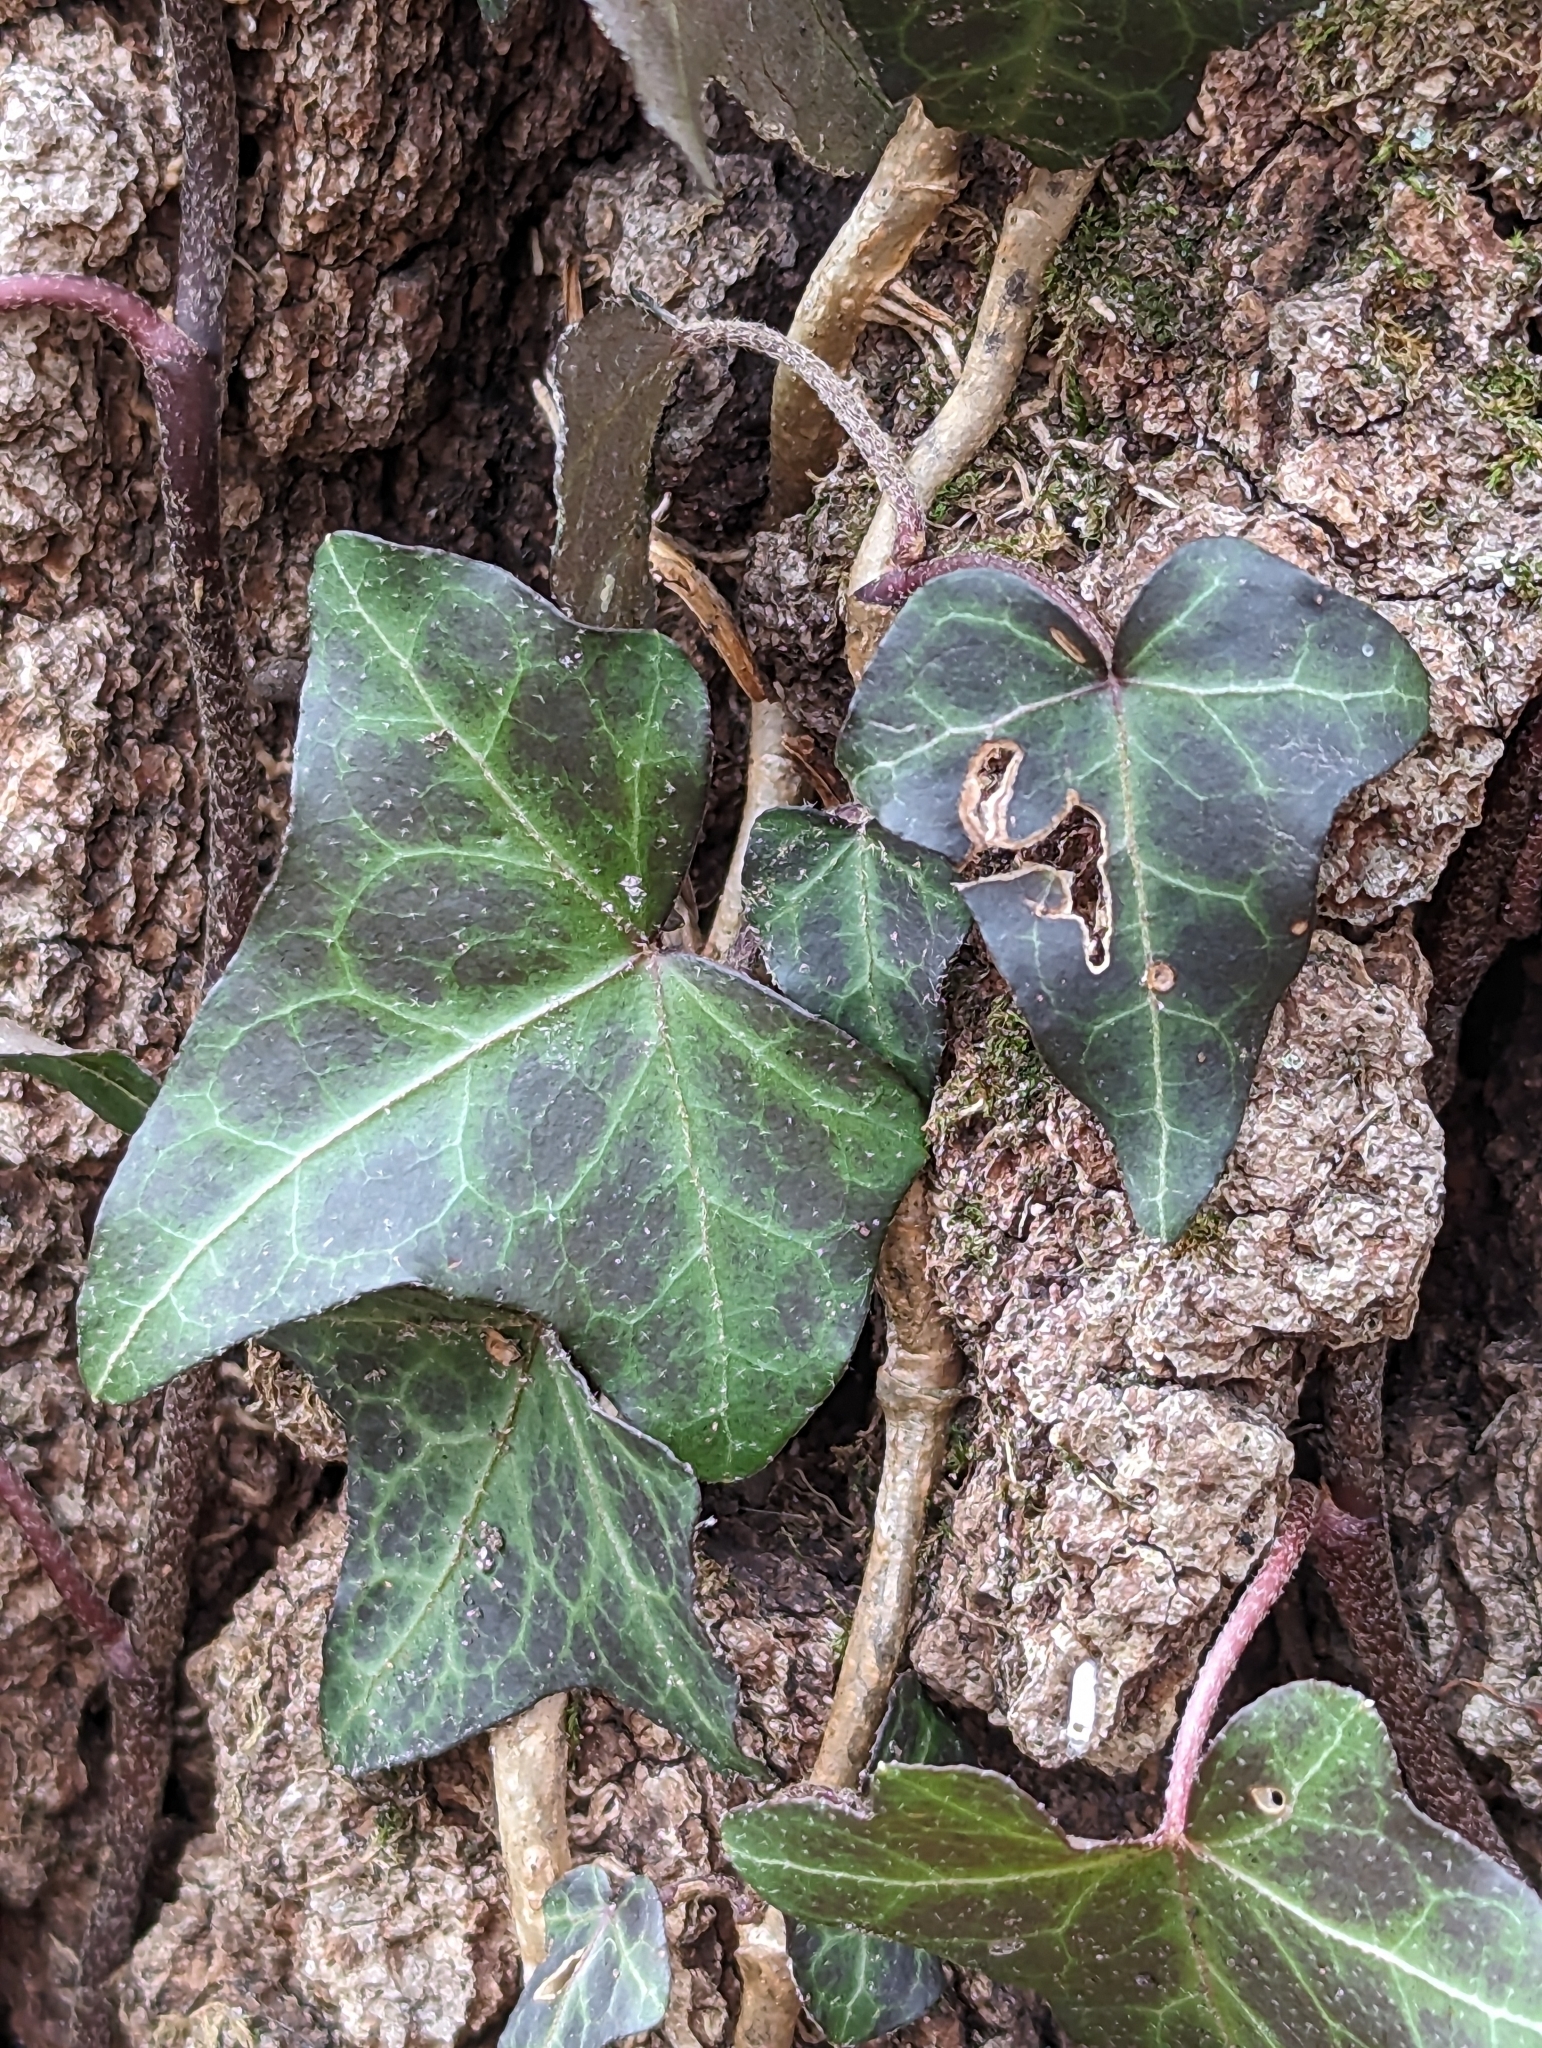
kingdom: Plantae
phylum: Tracheophyta
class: Magnoliopsida
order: Apiales
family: Araliaceae
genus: Hedera
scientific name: Hedera helix
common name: Ivy
